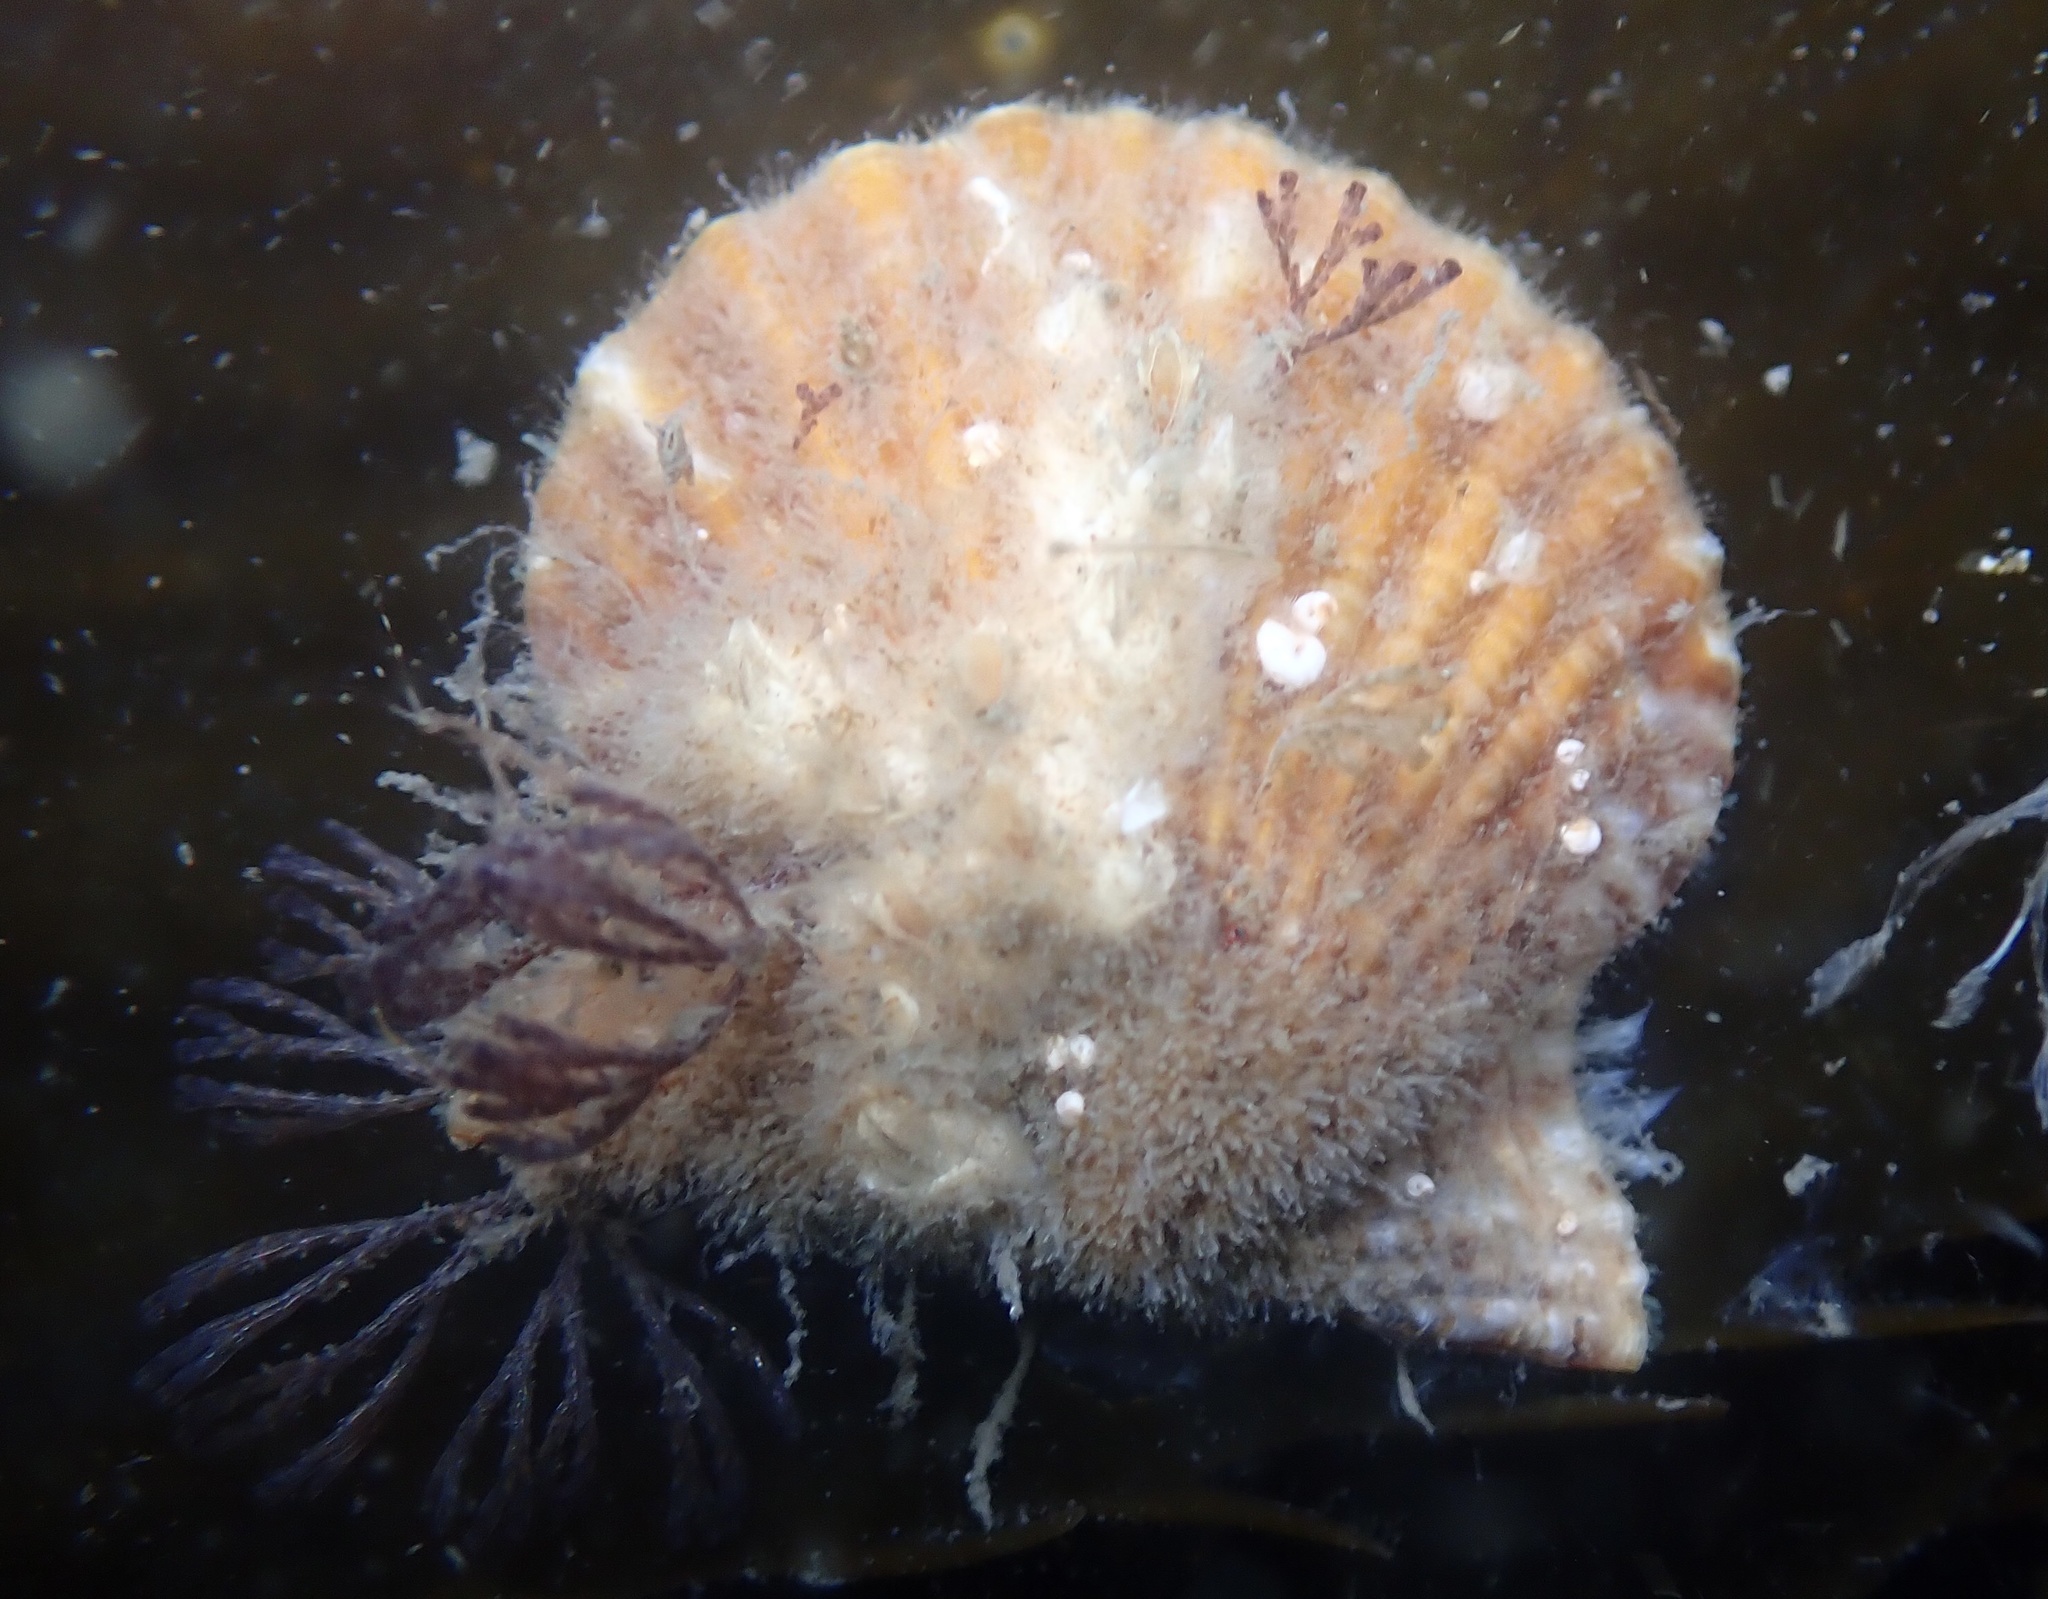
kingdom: Animalia
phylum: Mollusca
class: Bivalvia
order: Pectinida
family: Pectinidae
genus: Leptopecten
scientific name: Leptopecten latiauratus
